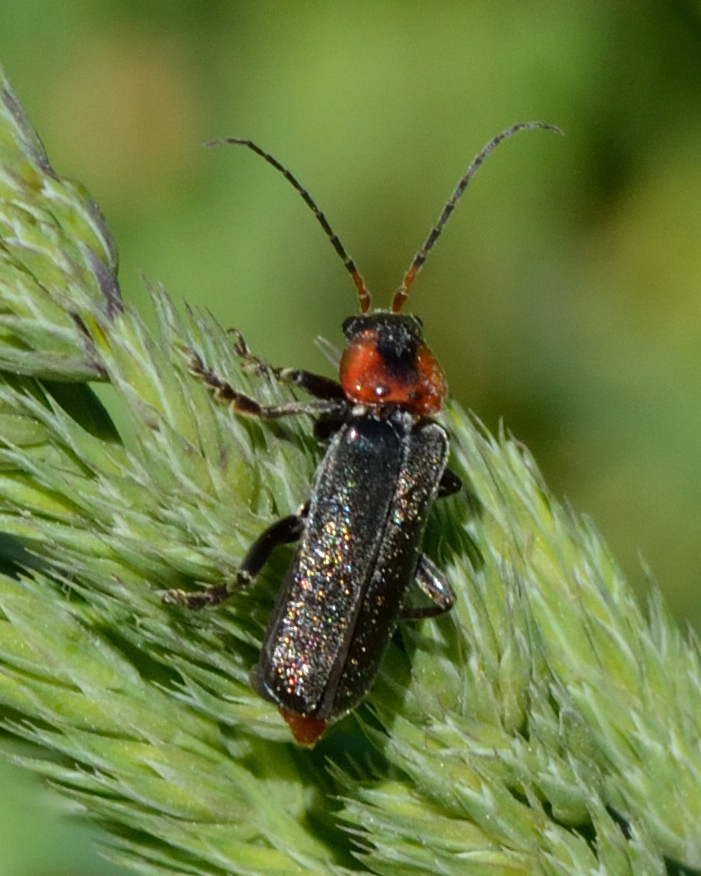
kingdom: Animalia
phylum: Arthropoda
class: Insecta
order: Coleoptera
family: Cantharidae
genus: Cantharis
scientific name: Cantharis fusca
